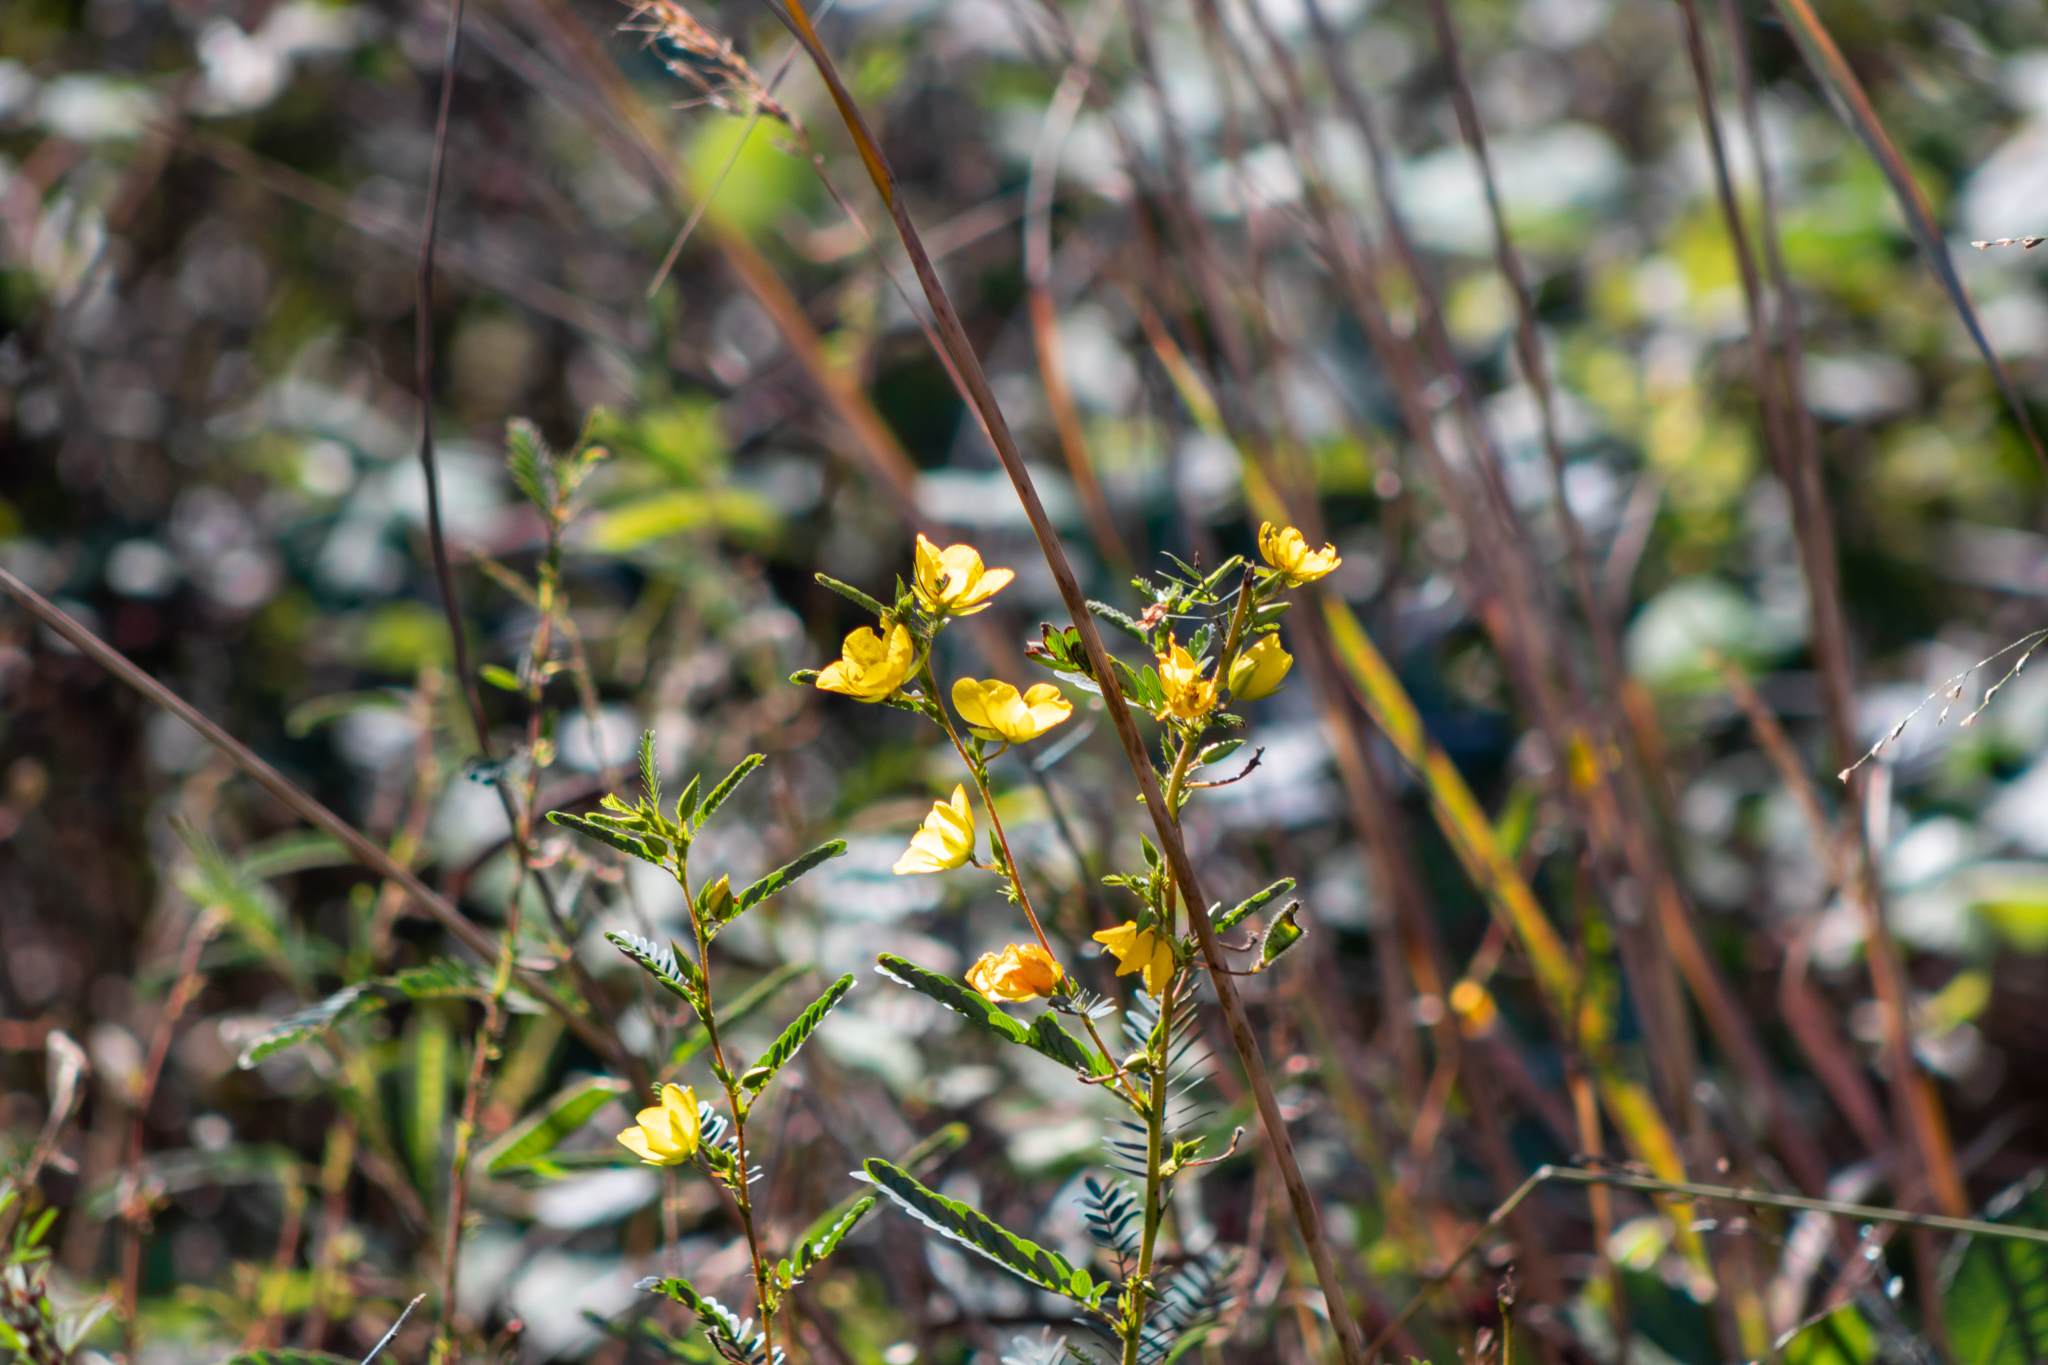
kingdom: Plantae
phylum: Tracheophyta
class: Magnoliopsida
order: Fabales
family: Fabaceae
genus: Chamaecrista
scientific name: Chamaecrista fasciculata
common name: Golden cassia
